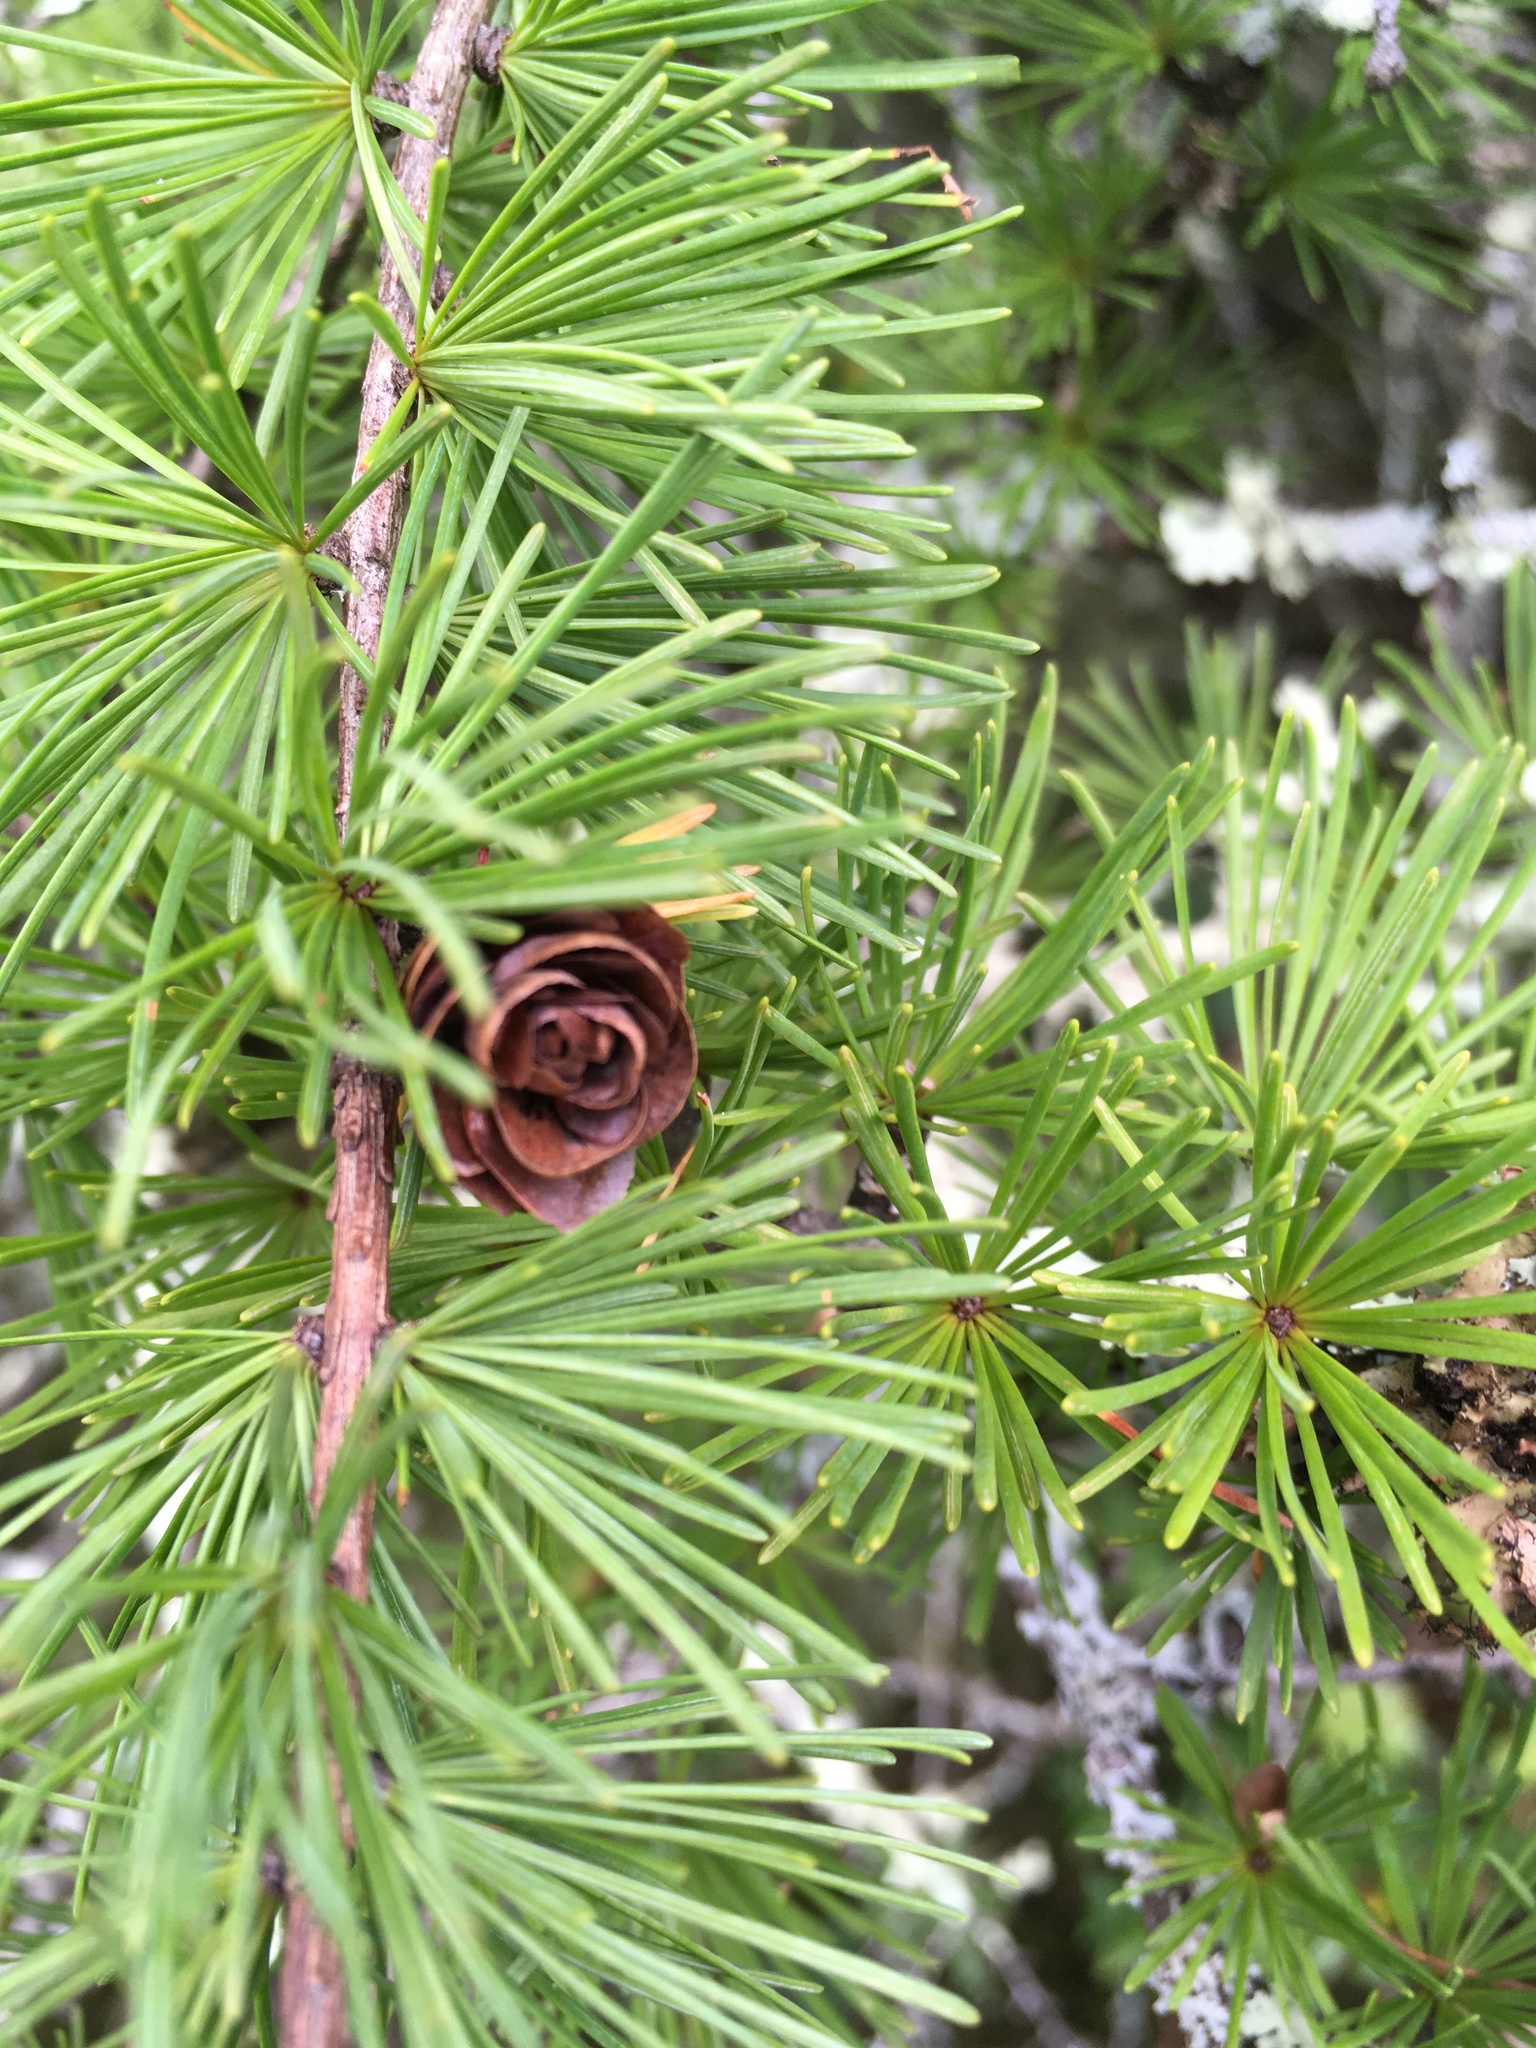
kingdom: Plantae
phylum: Tracheophyta
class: Pinopsida
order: Pinales
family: Pinaceae
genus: Larix
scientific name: Larix laricina
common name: American larch
